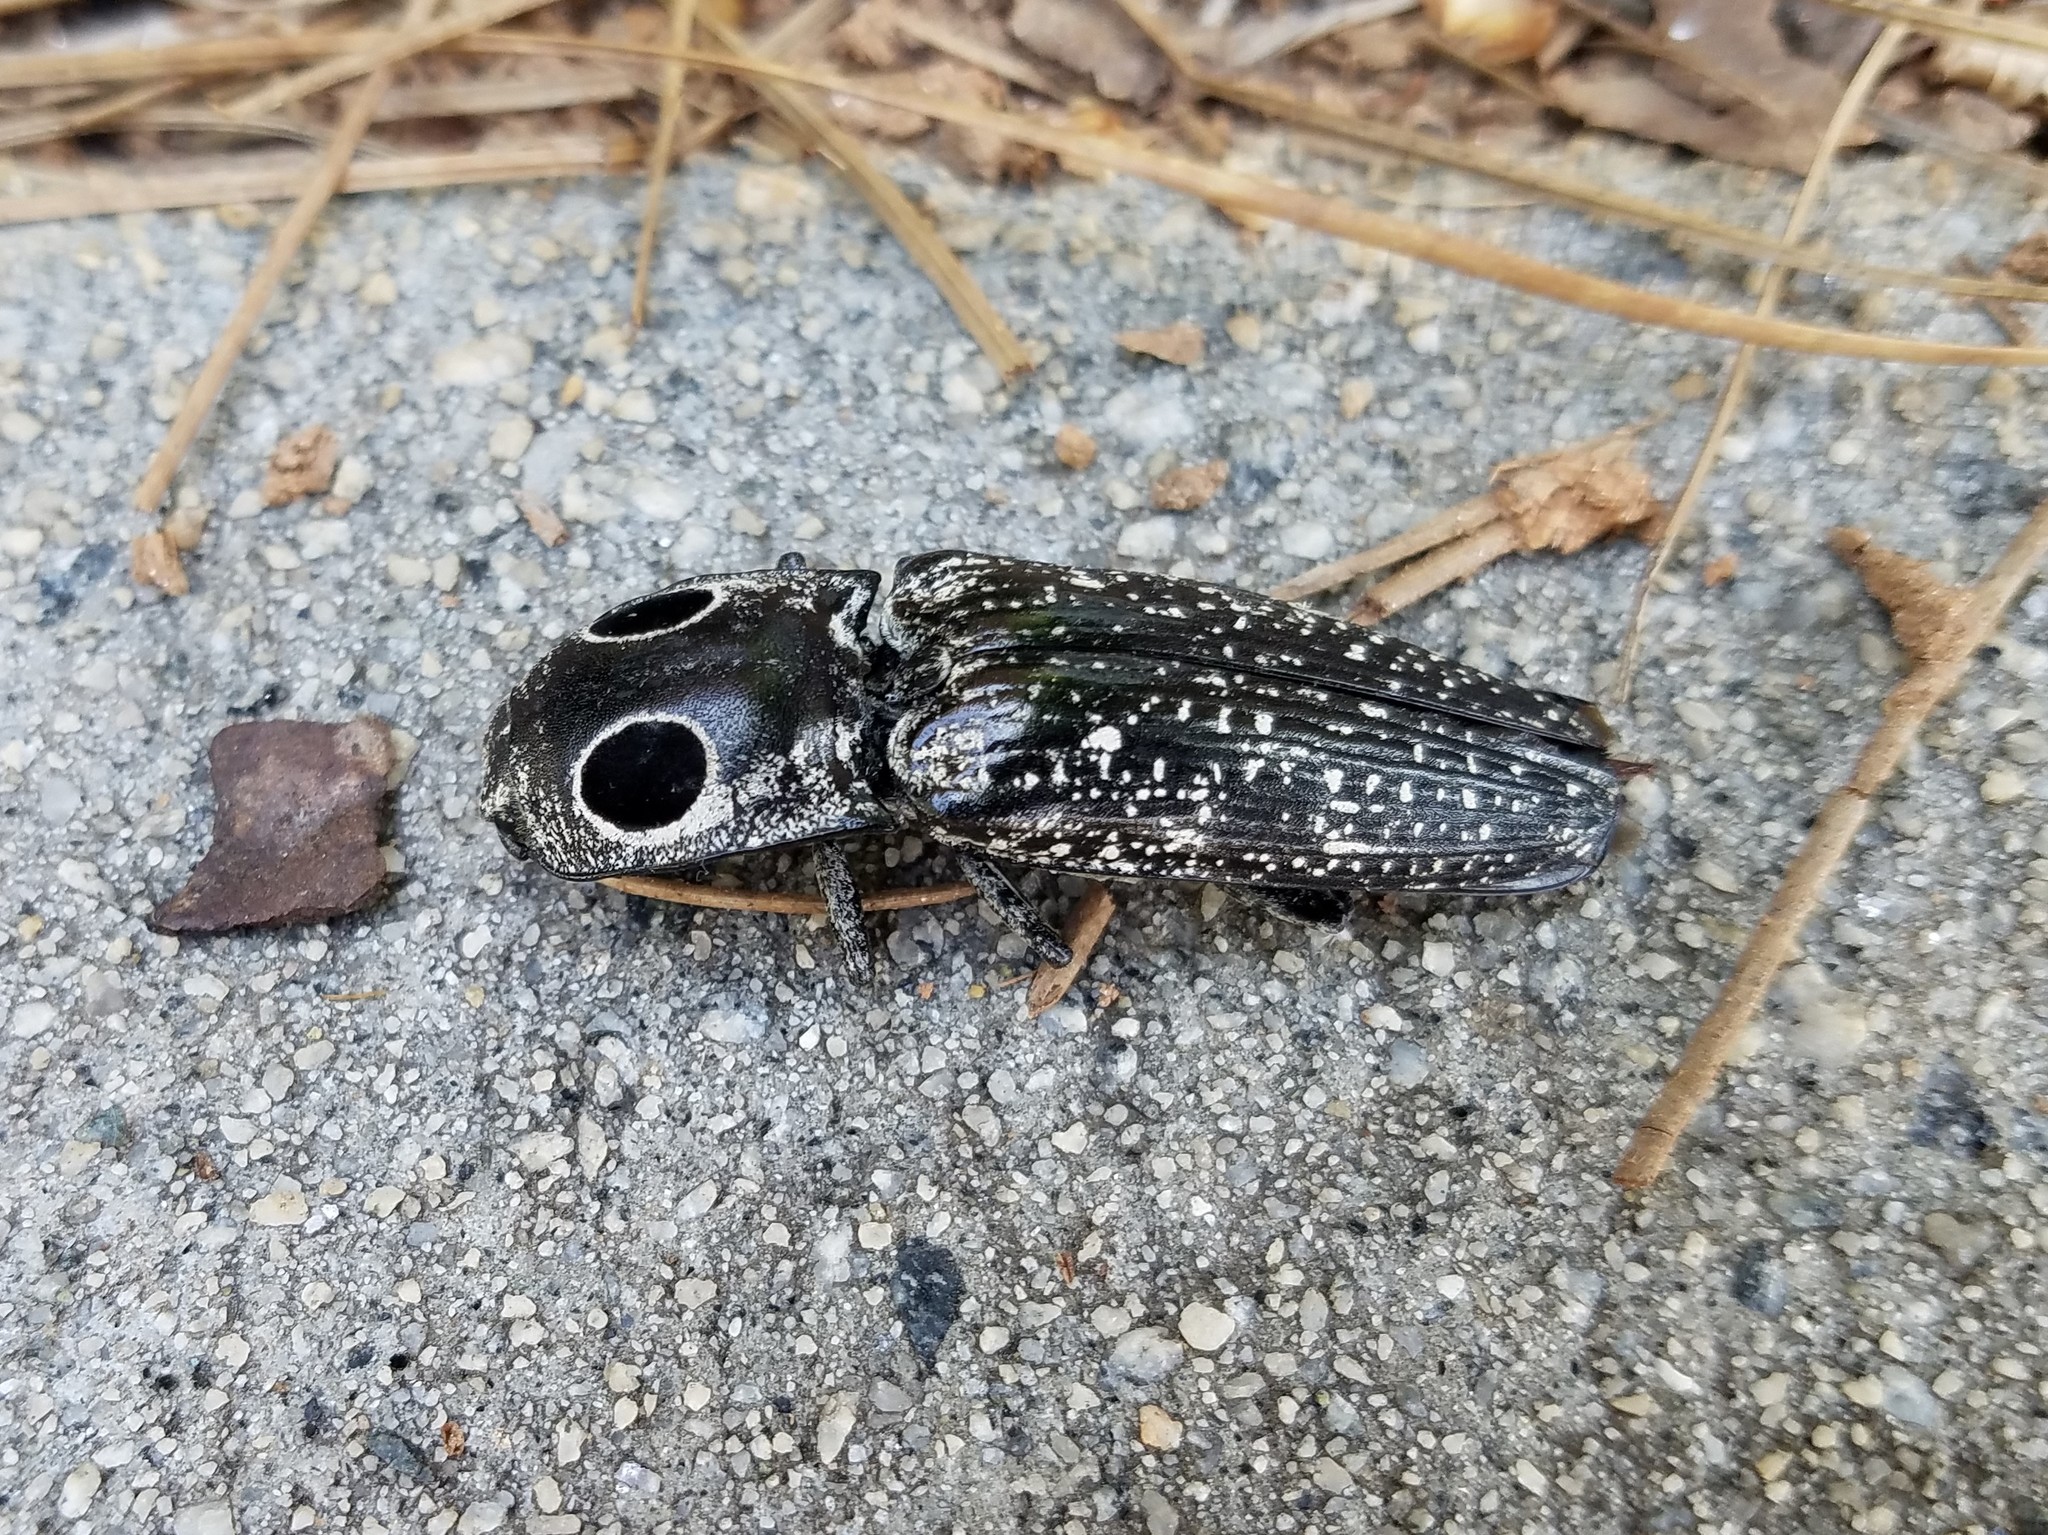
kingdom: Animalia
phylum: Arthropoda
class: Insecta
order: Coleoptera
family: Elateridae
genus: Alaus
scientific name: Alaus oculatus
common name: Eastern eyed click beetle
